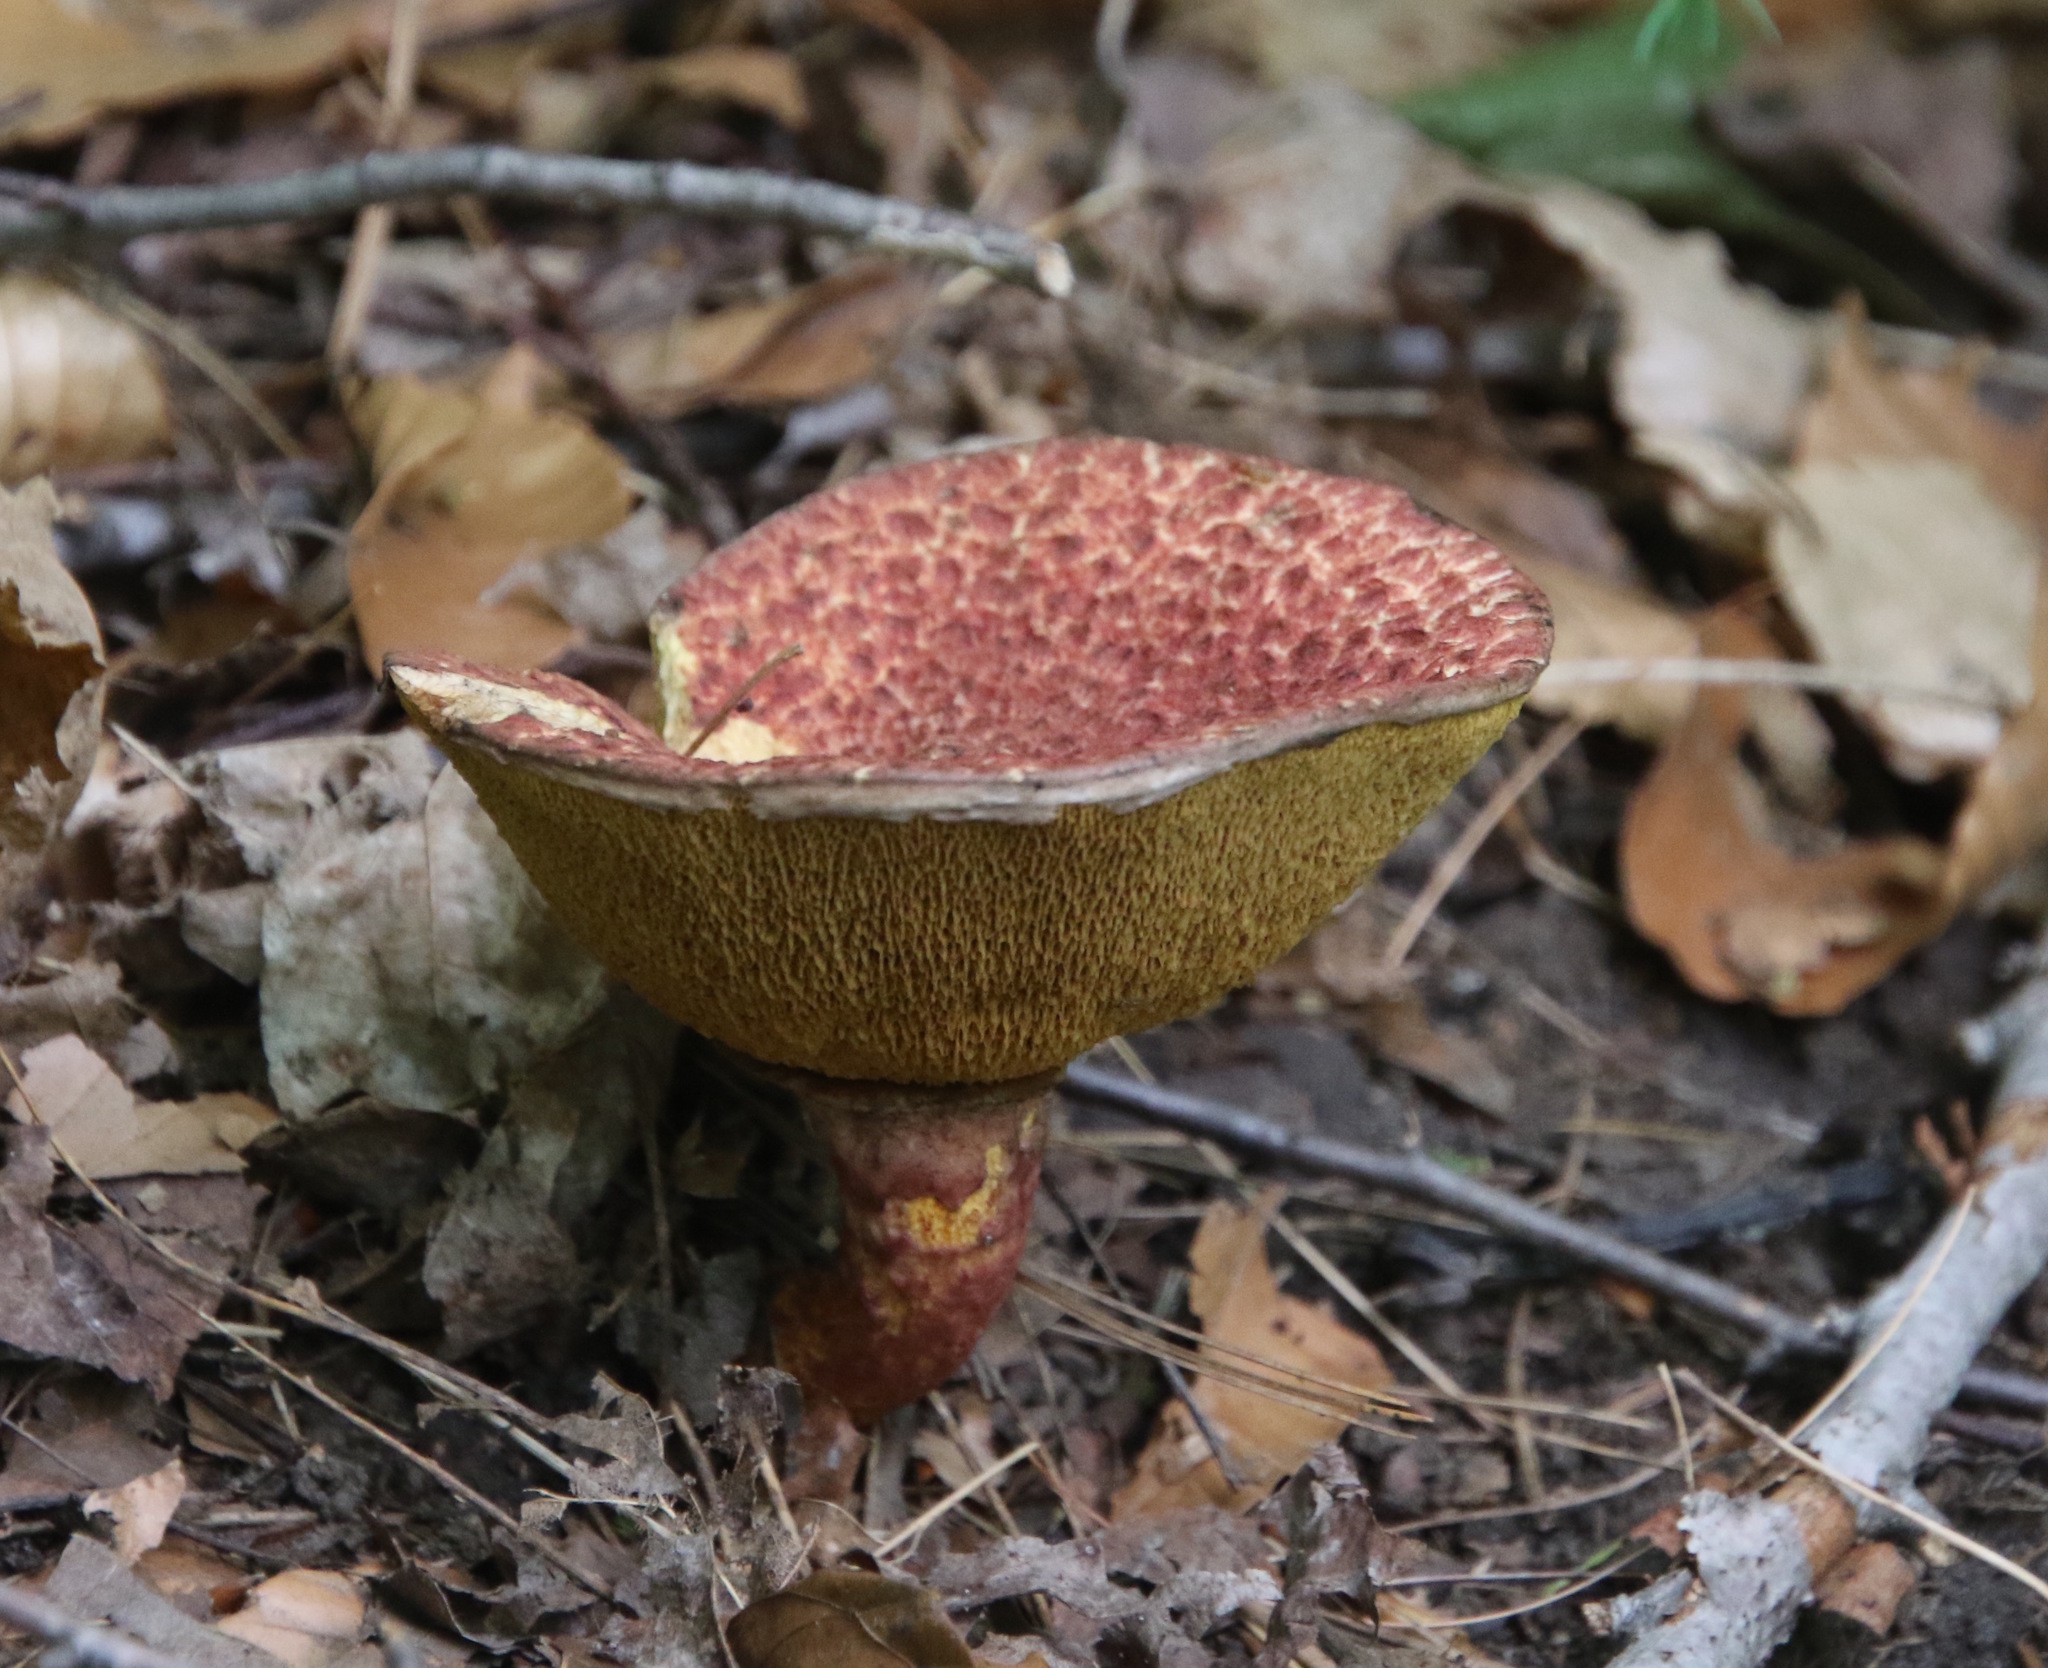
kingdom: Fungi
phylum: Basidiomycota
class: Agaricomycetes
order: Boletales
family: Suillaceae
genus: Suillus
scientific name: Suillus spraguei
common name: Painted suillus
